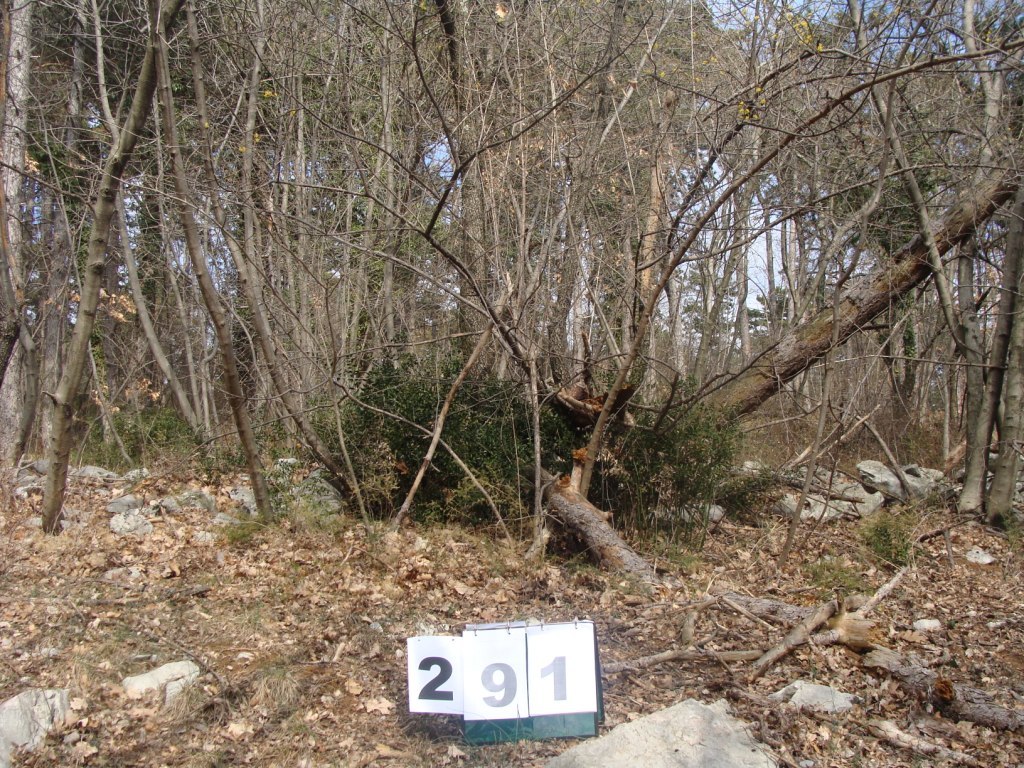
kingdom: Plantae
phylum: Tracheophyta
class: Magnoliopsida
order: Cornales
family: Cornaceae
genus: Cornus
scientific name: Cornus mas
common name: Cornelian-cherry
